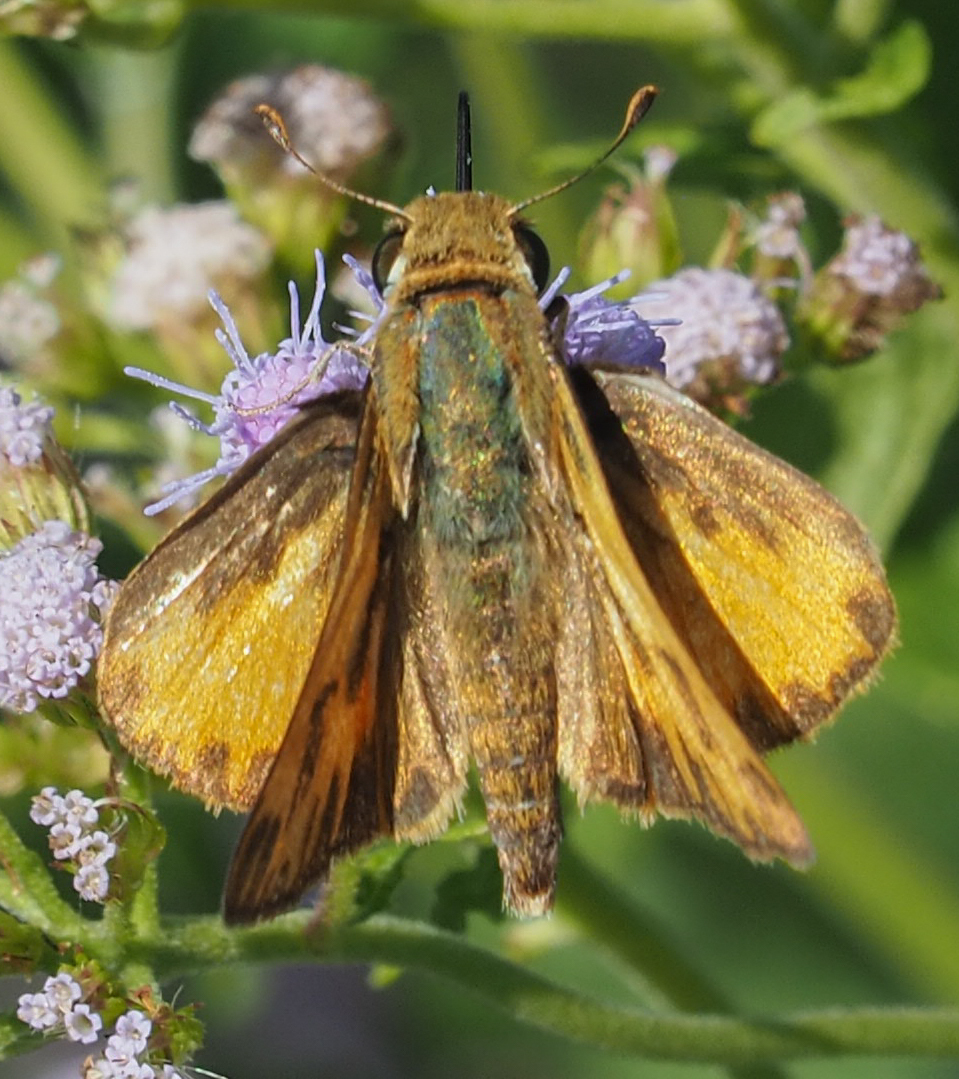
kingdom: Animalia
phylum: Arthropoda
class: Insecta
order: Lepidoptera
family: Hesperiidae
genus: Hylephila
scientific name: Hylephila phyleus
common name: Fiery skipper
